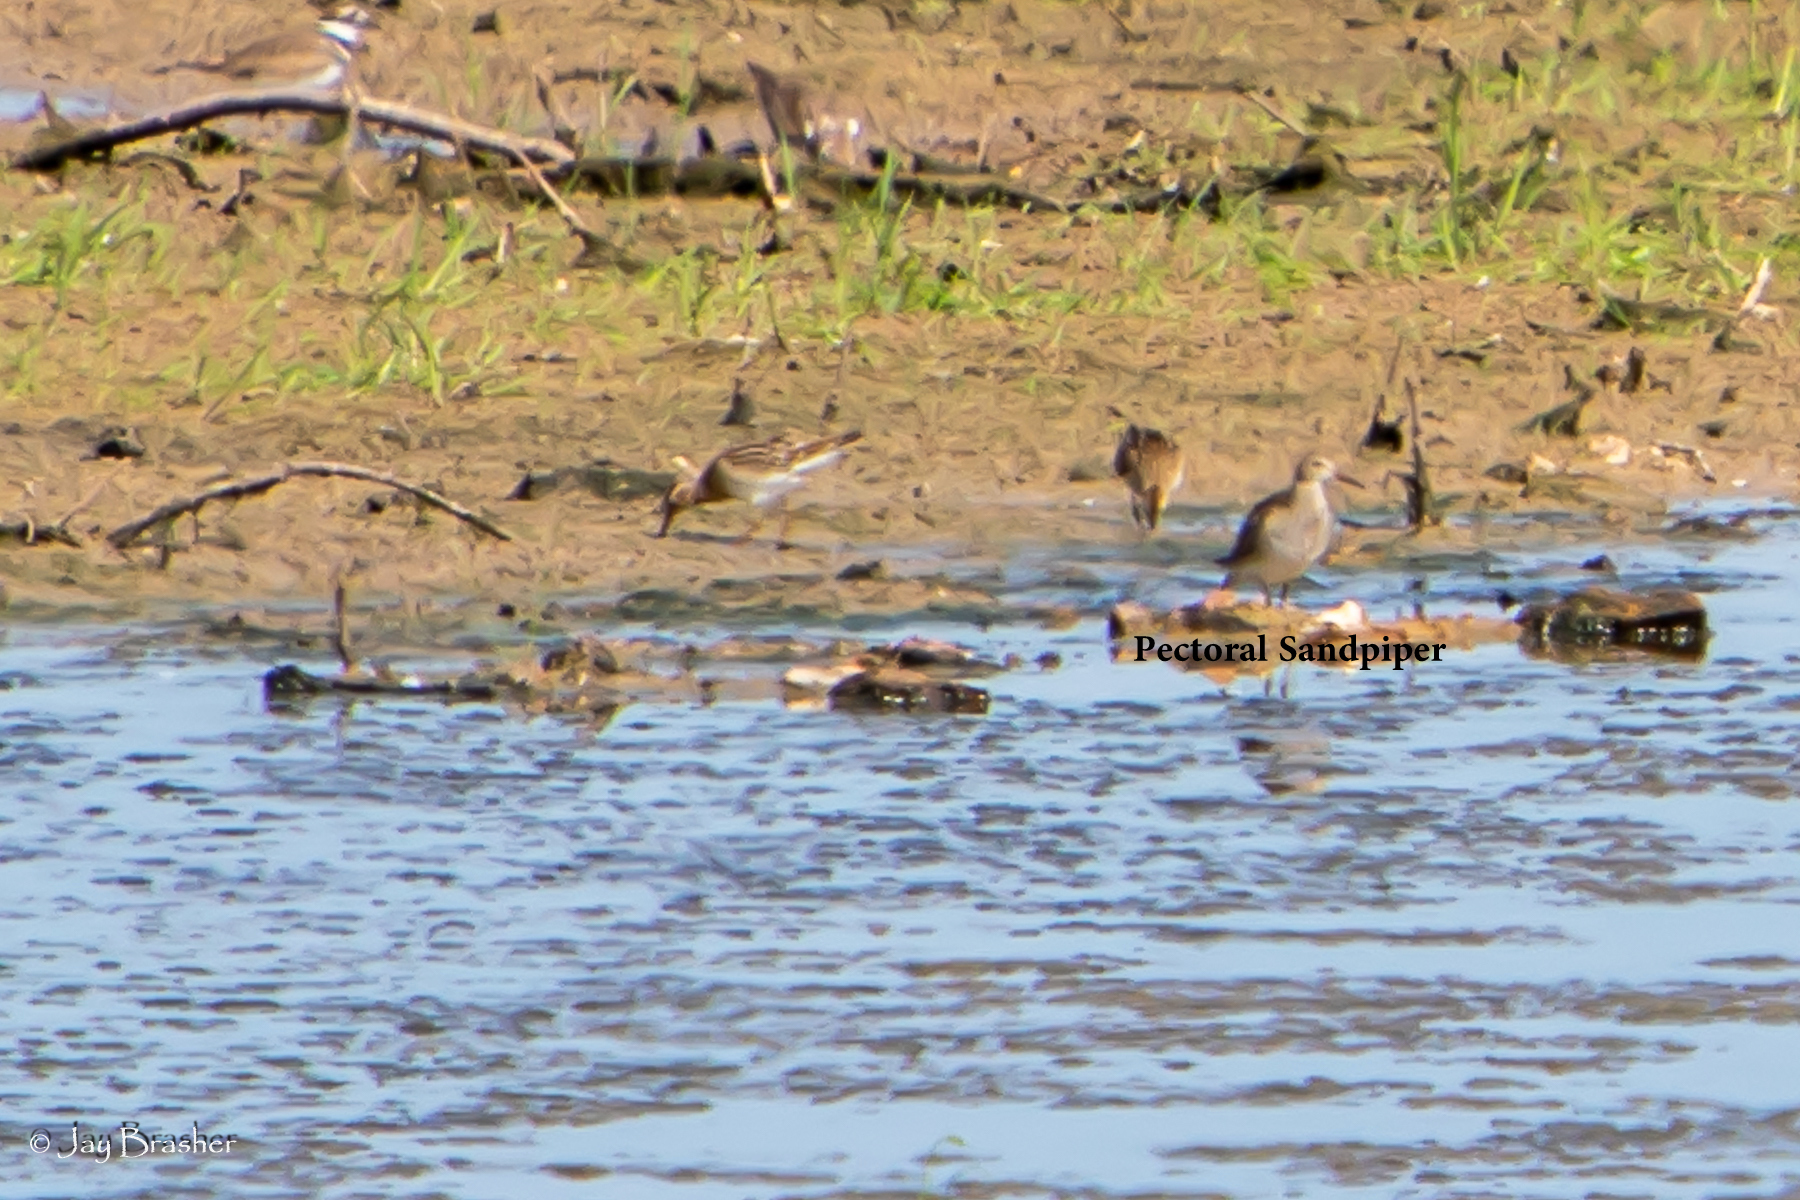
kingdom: Animalia
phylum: Chordata
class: Aves
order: Charadriiformes
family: Scolopacidae
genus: Calidris
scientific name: Calidris melanotos
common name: Pectoral sandpiper
